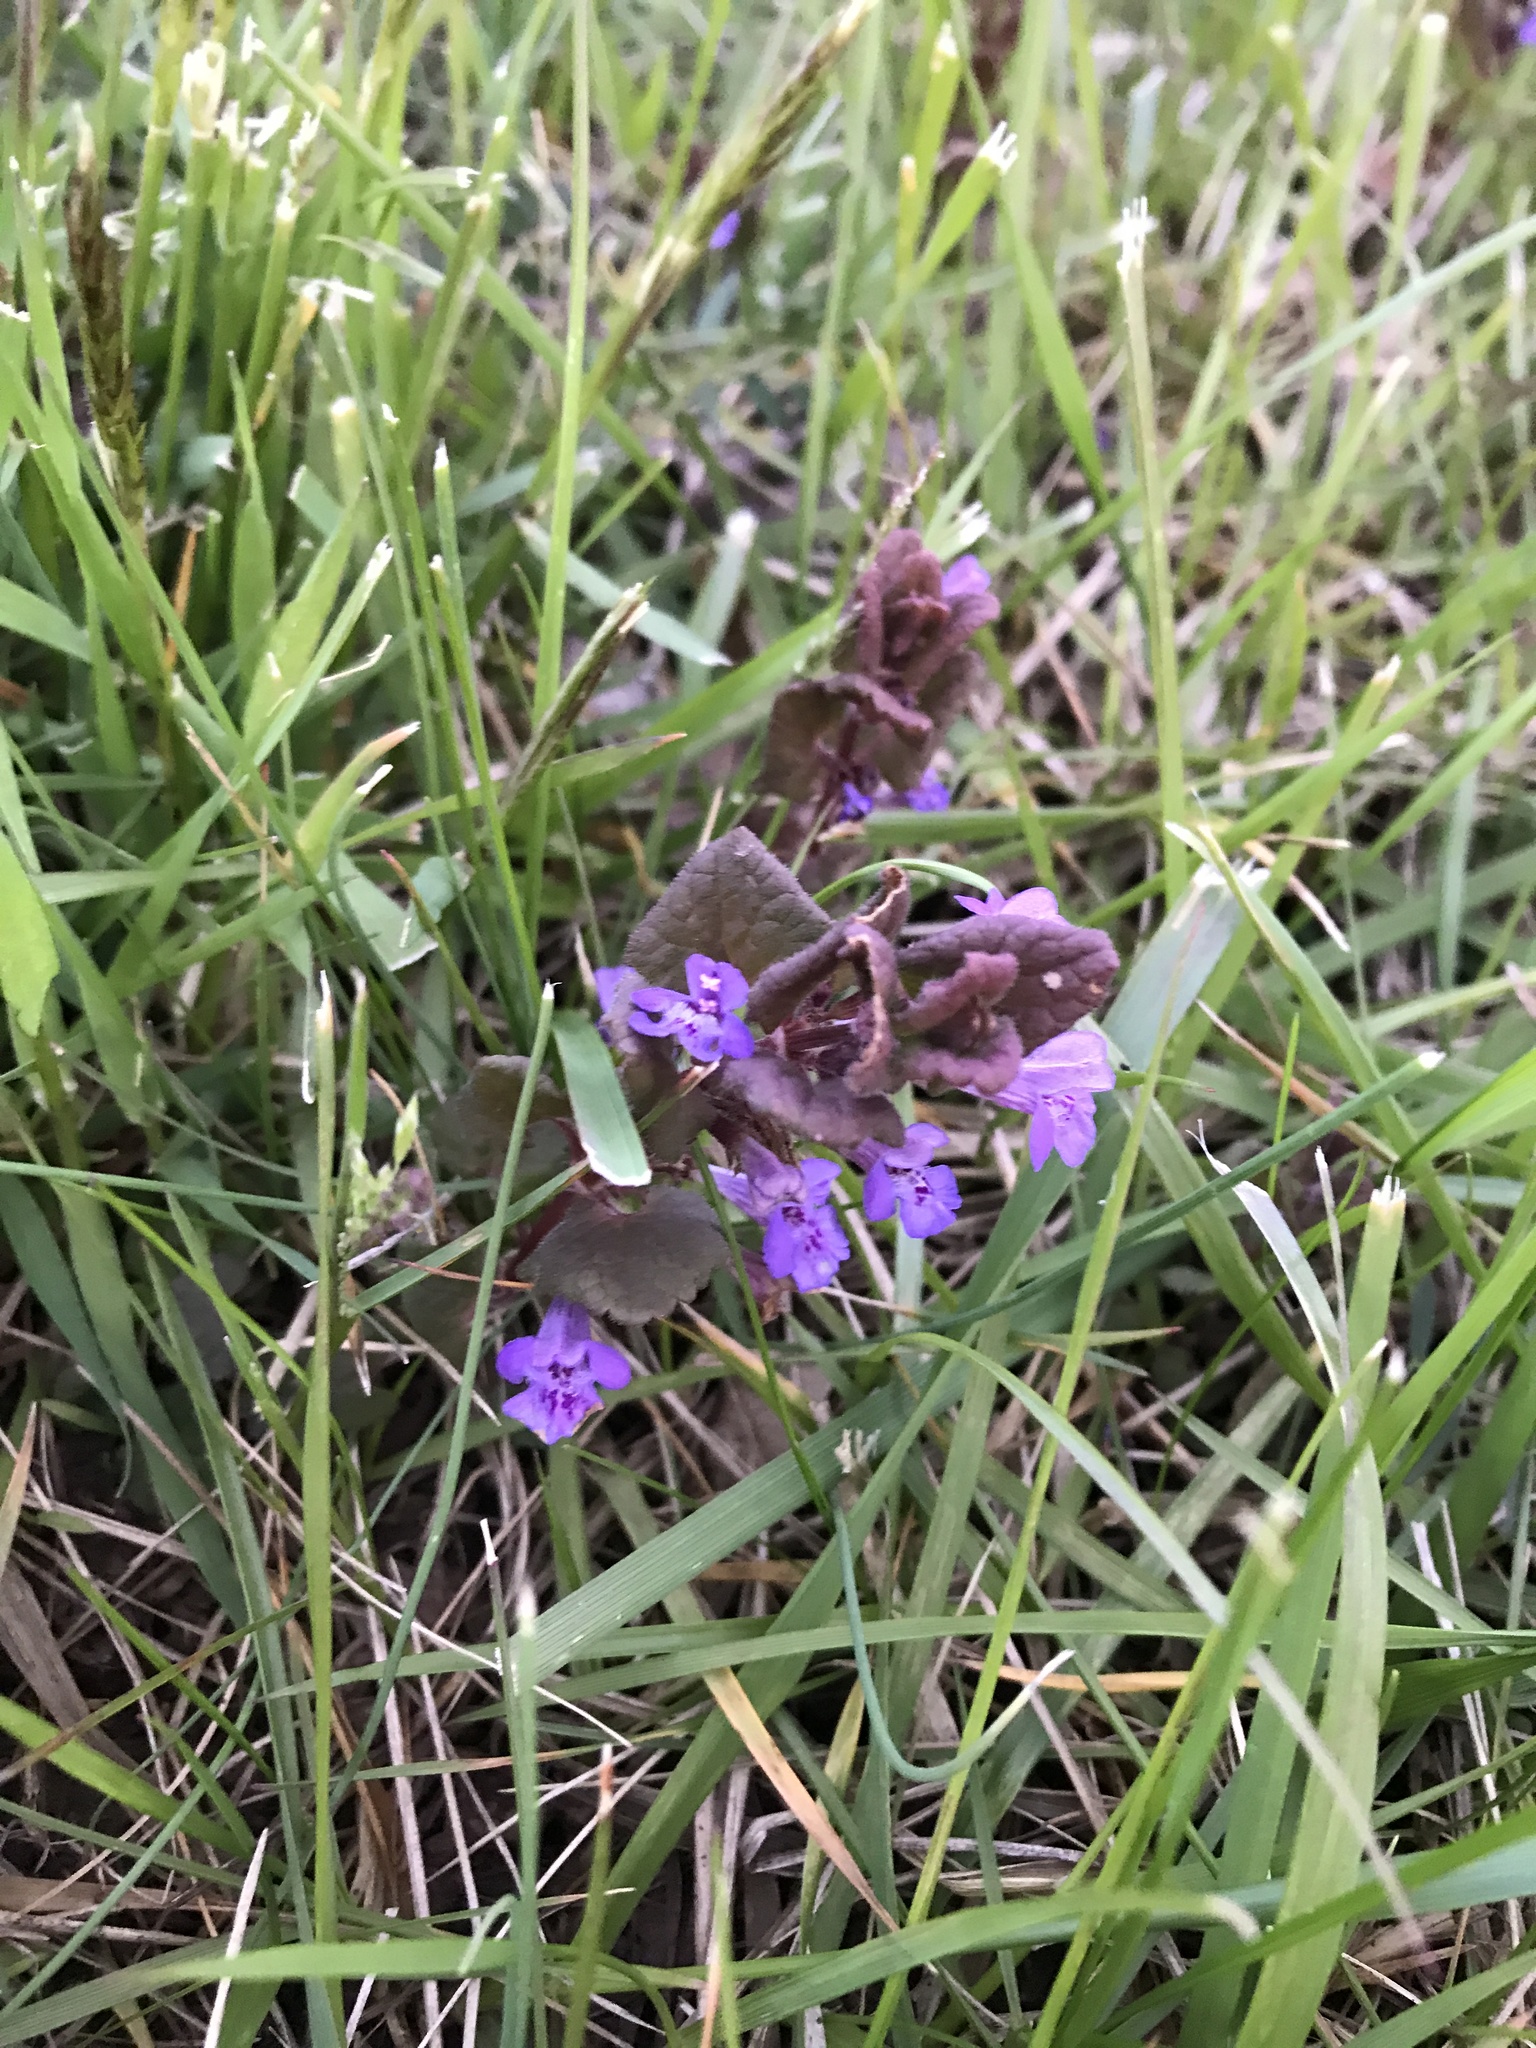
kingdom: Plantae
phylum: Tracheophyta
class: Magnoliopsida
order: Lamiales
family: Lamiaceae
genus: Glechoma
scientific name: Glechoma hederacea
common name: Ground ivy
